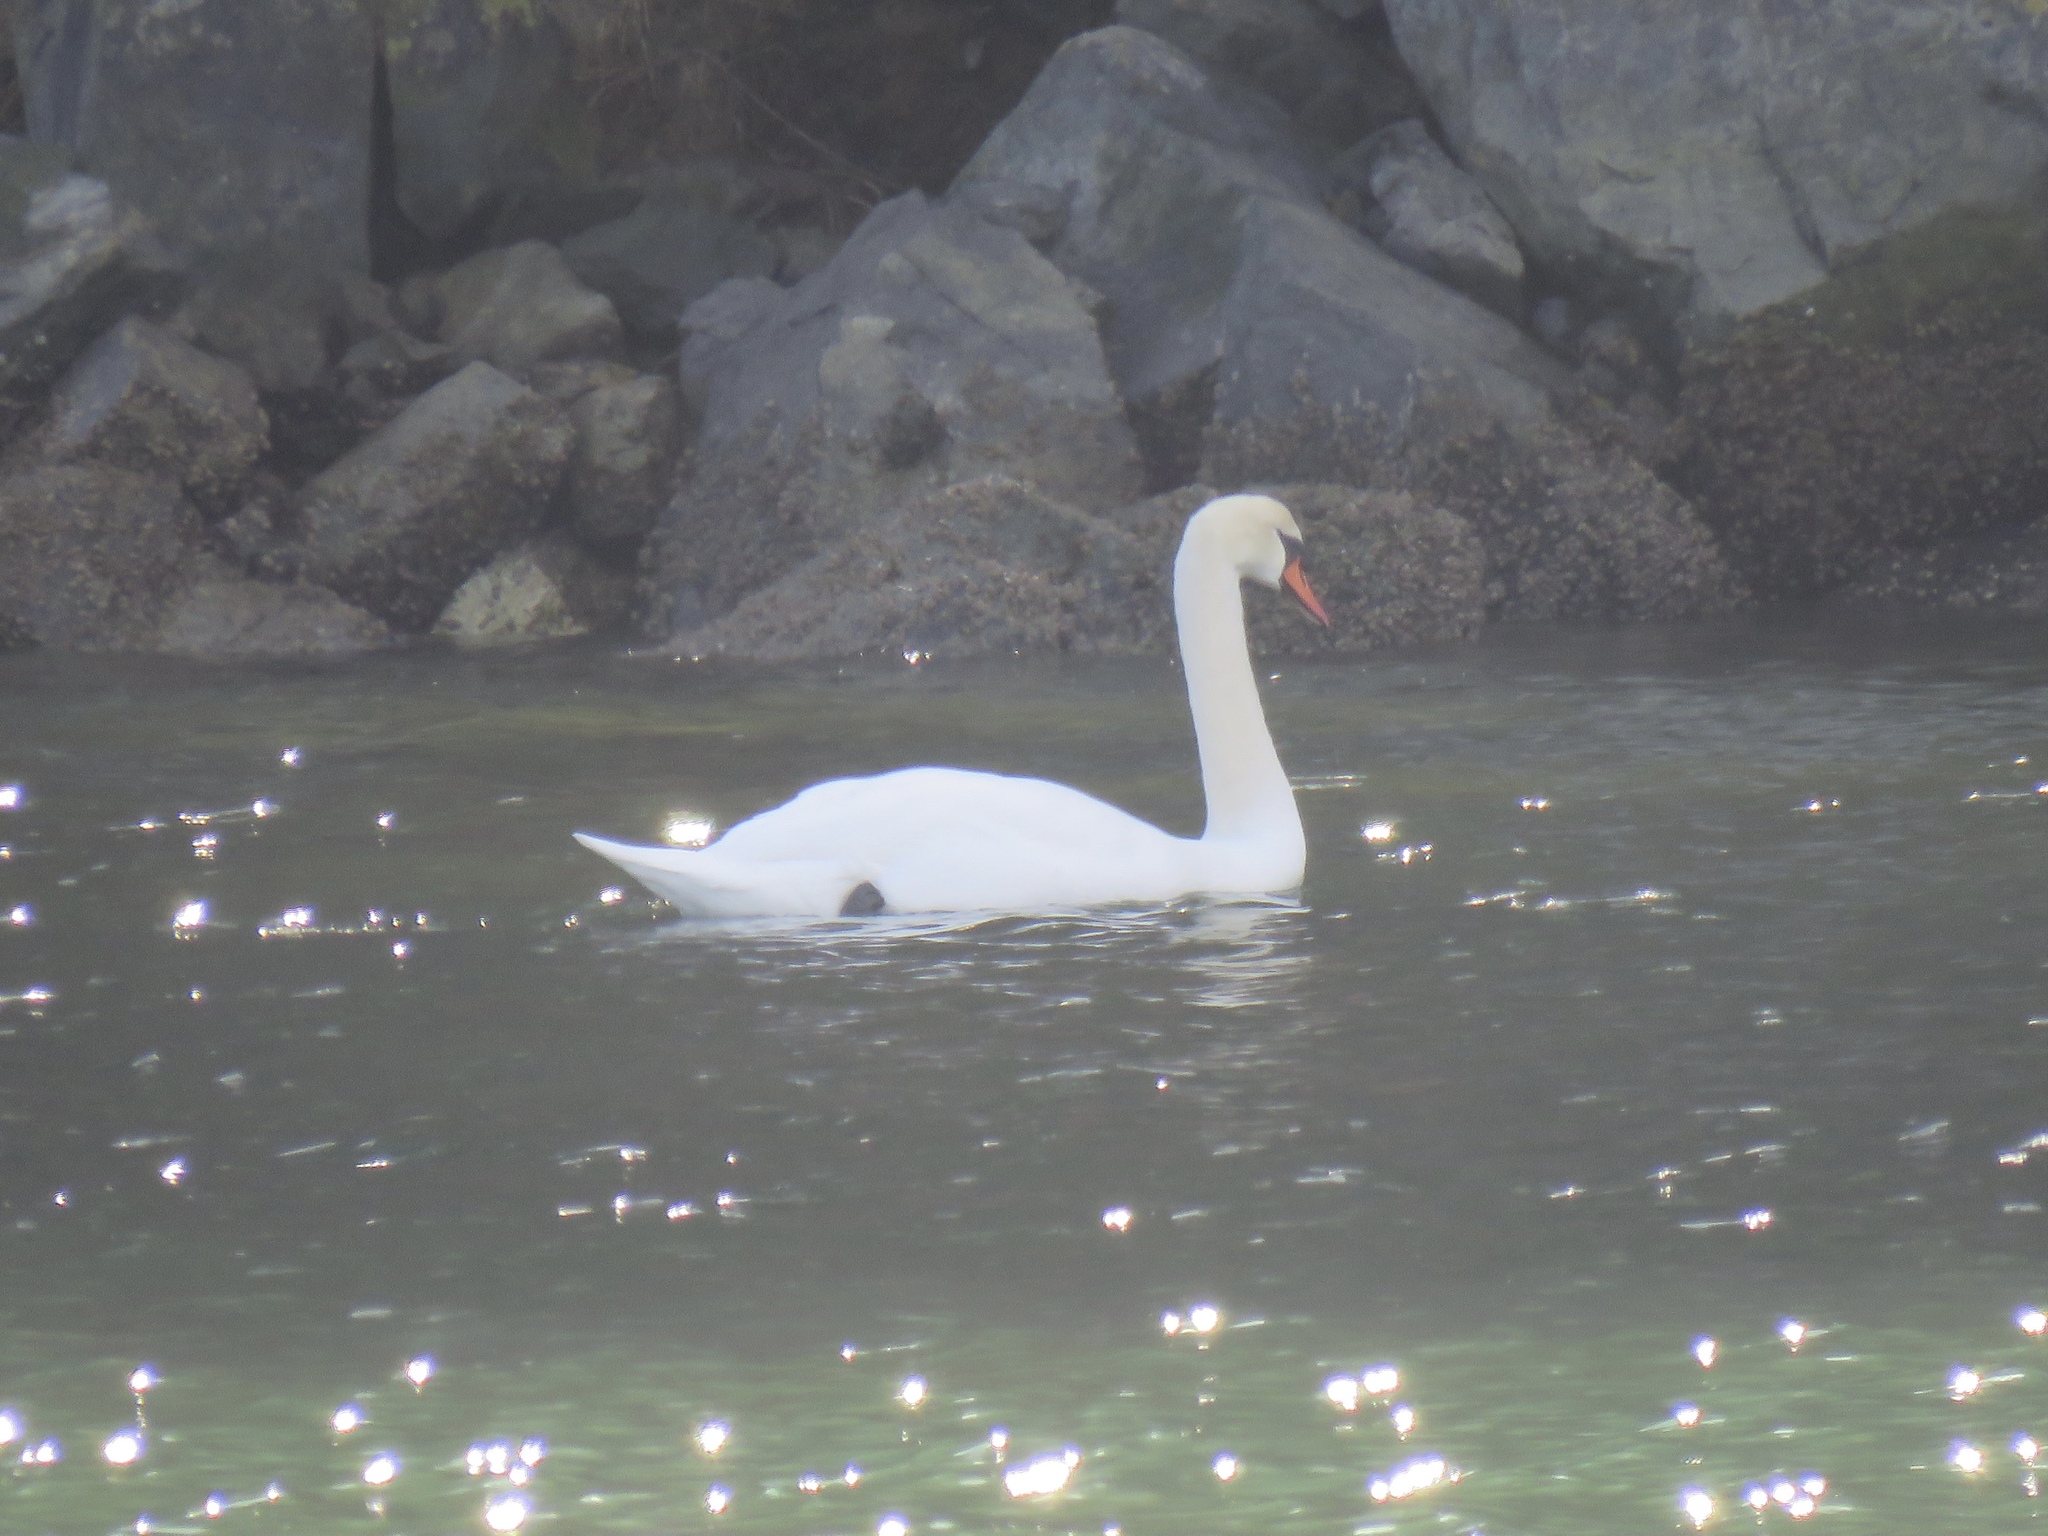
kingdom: Animalia
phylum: Chordata
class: Aves
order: Anseriformes
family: Anatidae
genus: Cygnus
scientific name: Cygnus olor
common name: Mute swan
